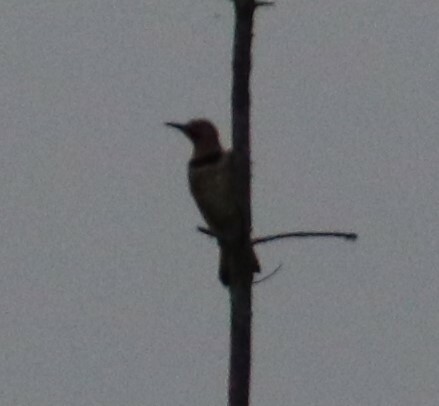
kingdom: Animalia
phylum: Chordata
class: Aves
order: Piciformes
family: Picidae
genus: Colaptes
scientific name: Colaptes auratus
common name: Northern flicker
